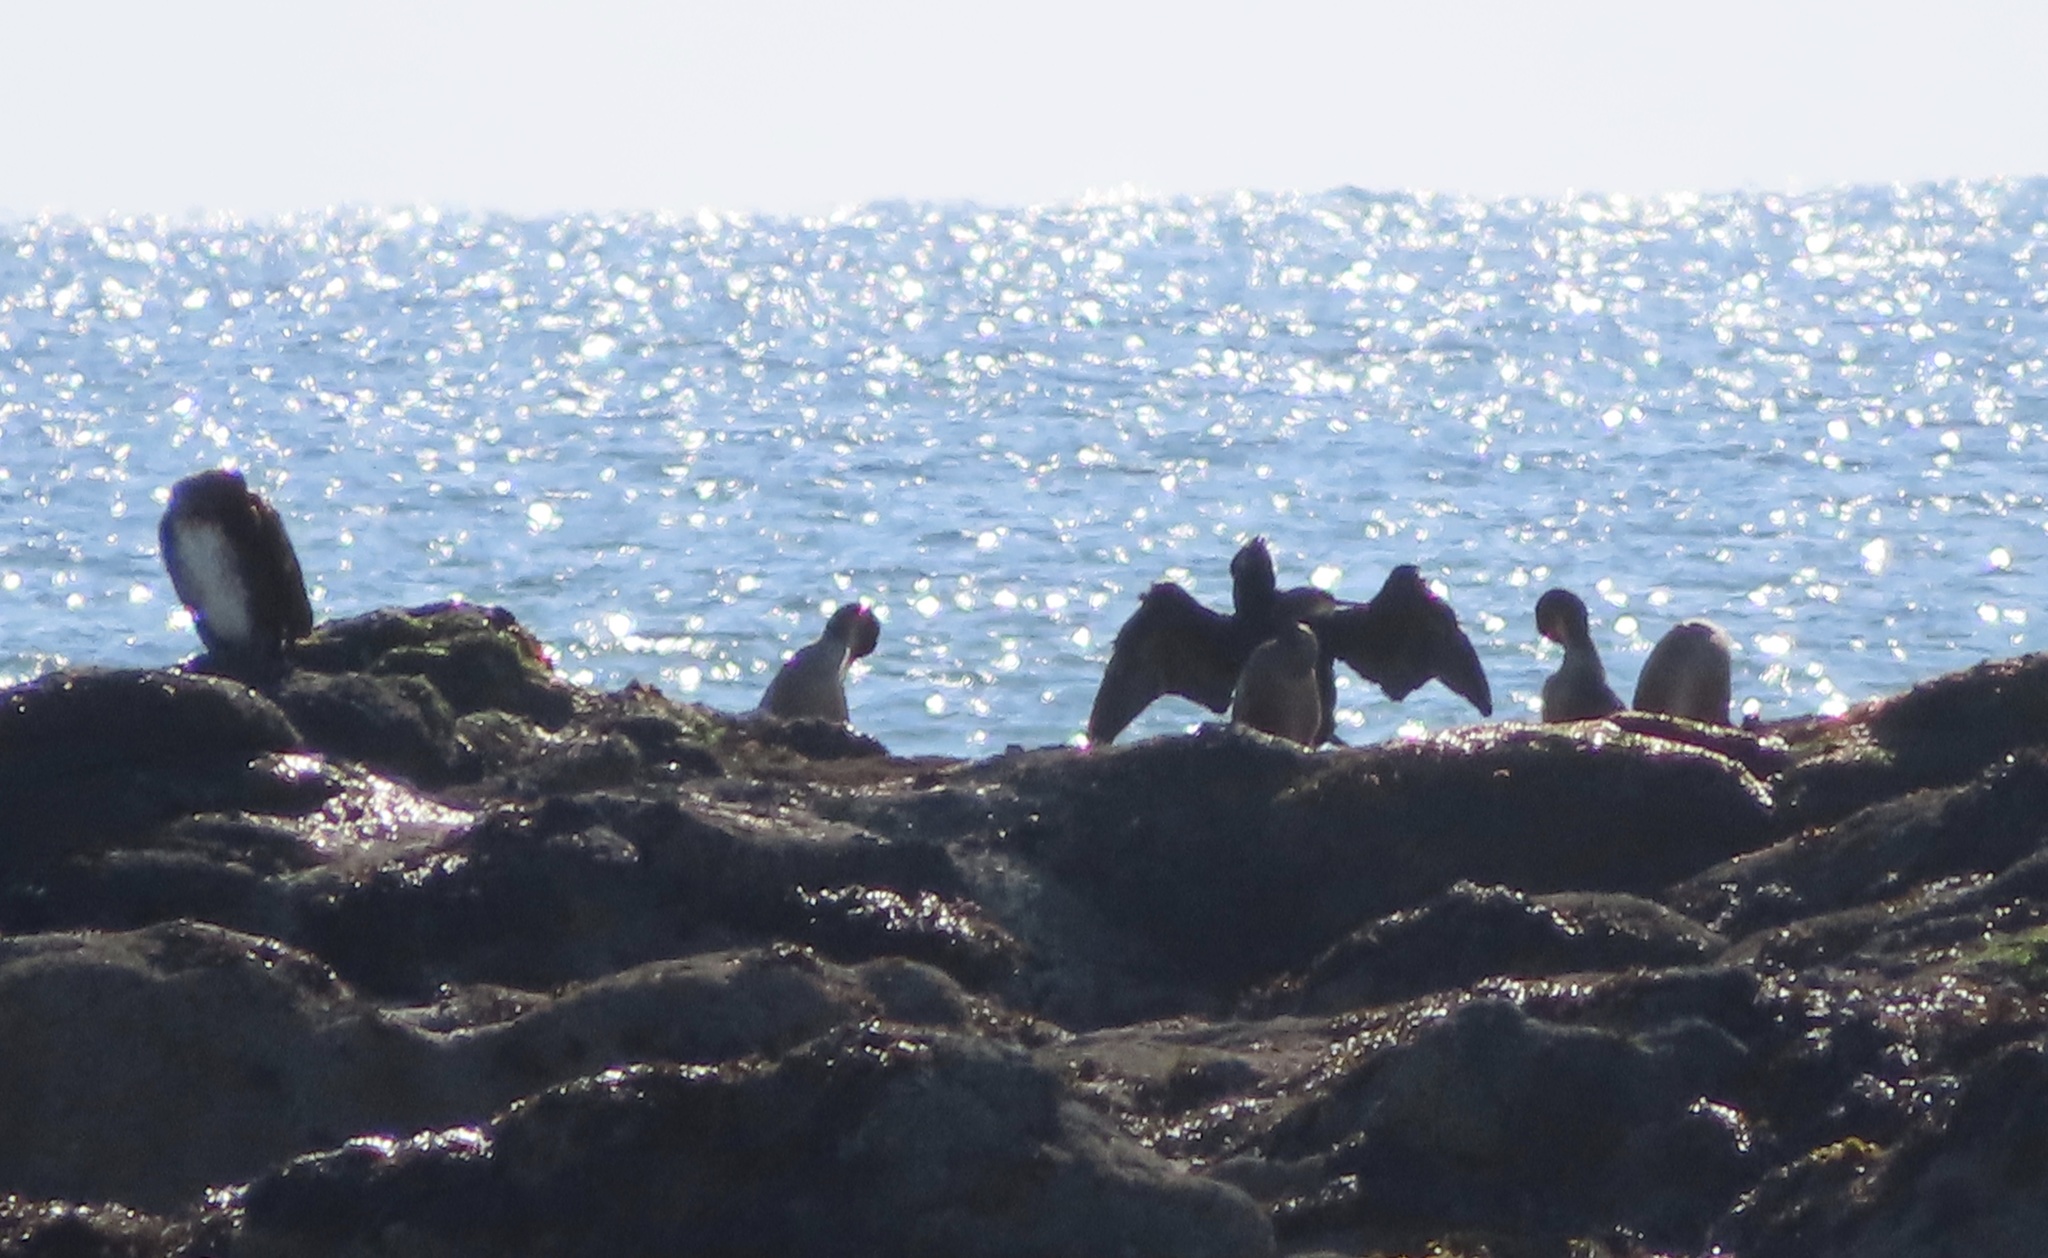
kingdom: Animalia
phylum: Chordata
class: Aves
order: Suliformes
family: Phalacrocoracidae
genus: Phalacrocorax
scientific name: Phalacrocorax carbo
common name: Great cormorant
